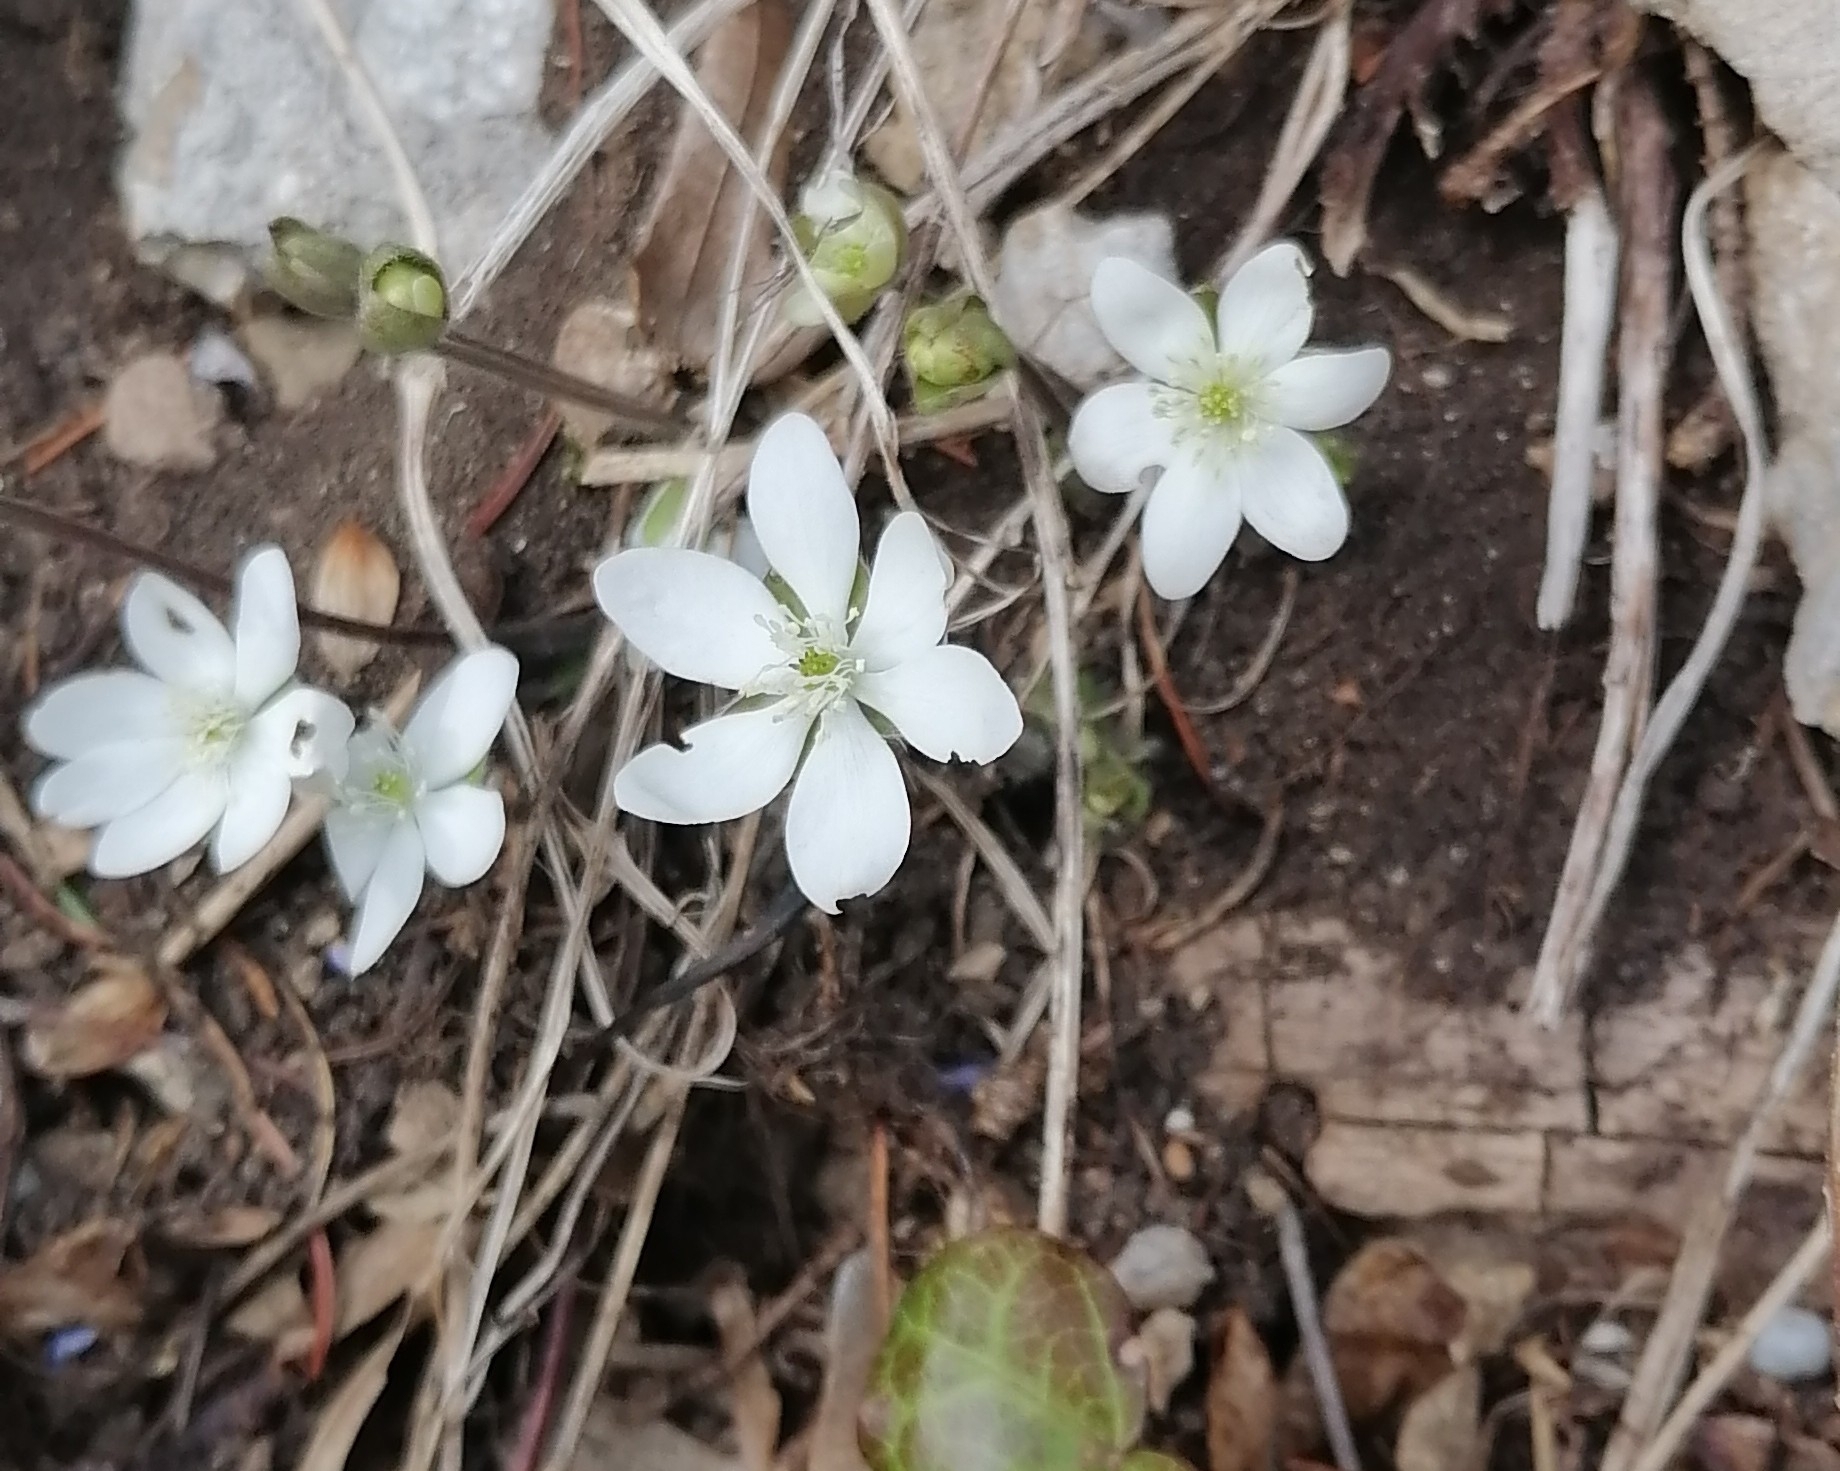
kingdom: Plantae
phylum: Tracheophyta
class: Magnoliopsida
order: Ranunculales
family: Ranunculaceae
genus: Hepatica
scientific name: Hepatica nobilis
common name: Liverleaf
